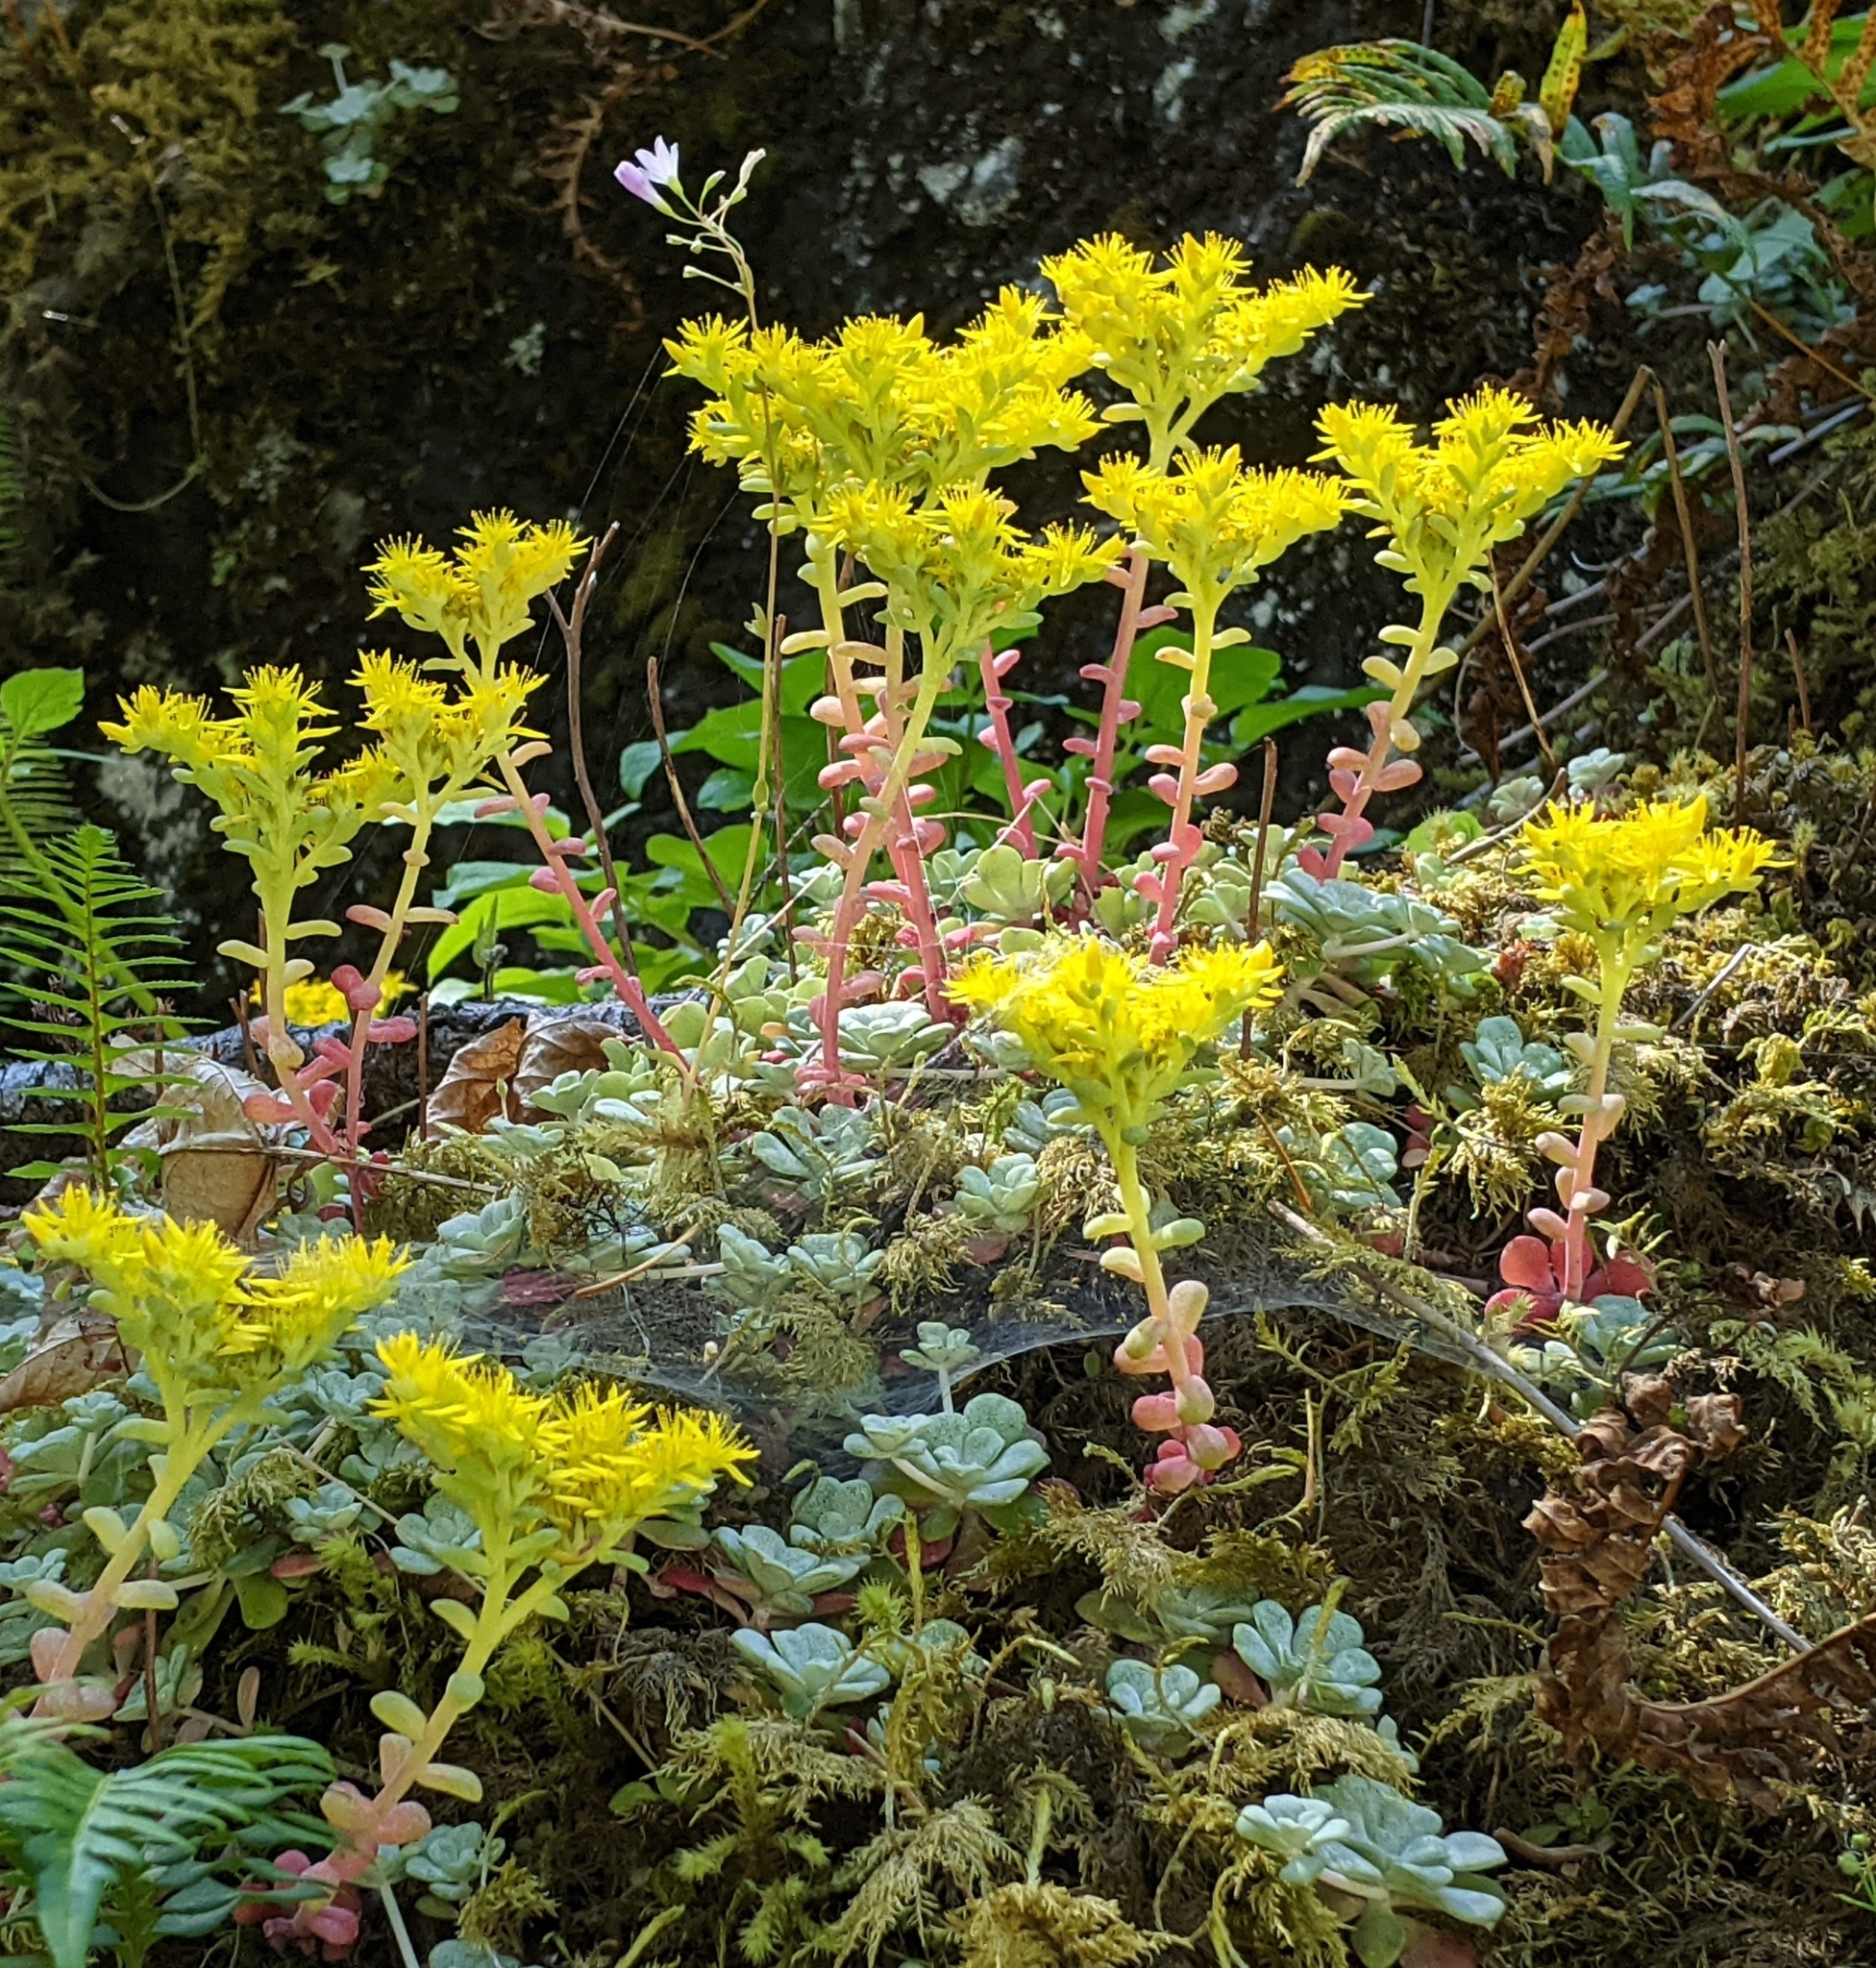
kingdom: Plantae
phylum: Tracheophyta
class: Magnoliopsida
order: Saxifragales
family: Crassulaceae
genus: Sedum
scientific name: Sedum spathulifolium
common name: Colorado stonecrop
